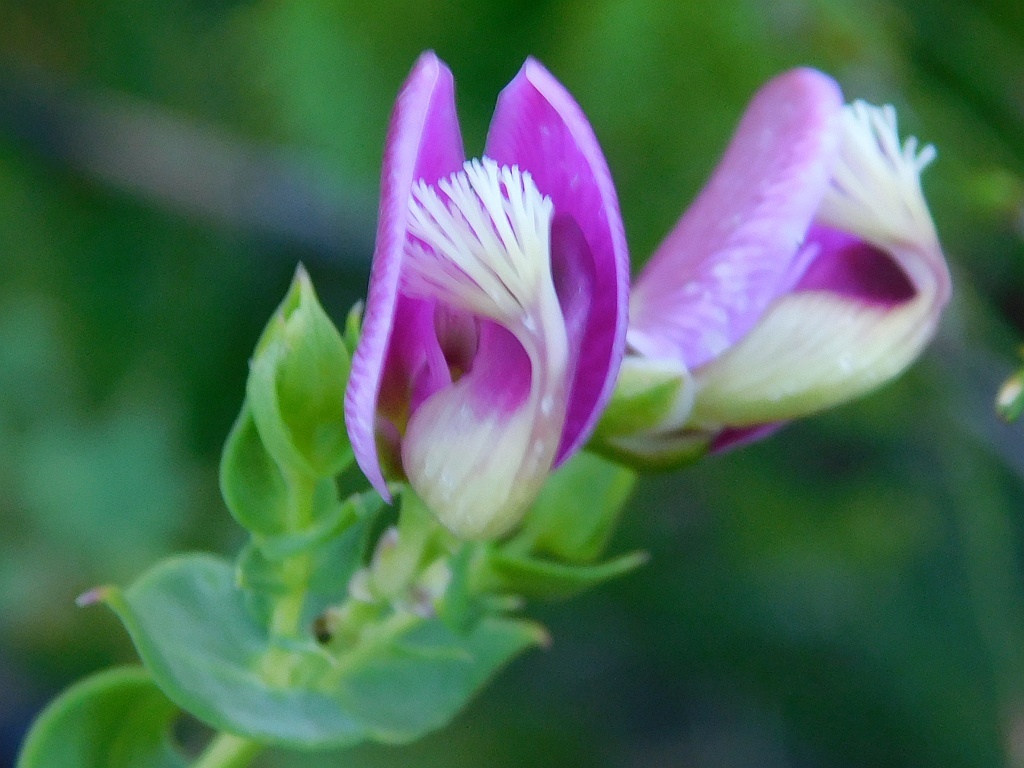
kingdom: Plantae
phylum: Tracheophyta
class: Magnoliopsida
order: Fabales
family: Polygalaceae
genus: Polygala
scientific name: Polygala fruticosa
